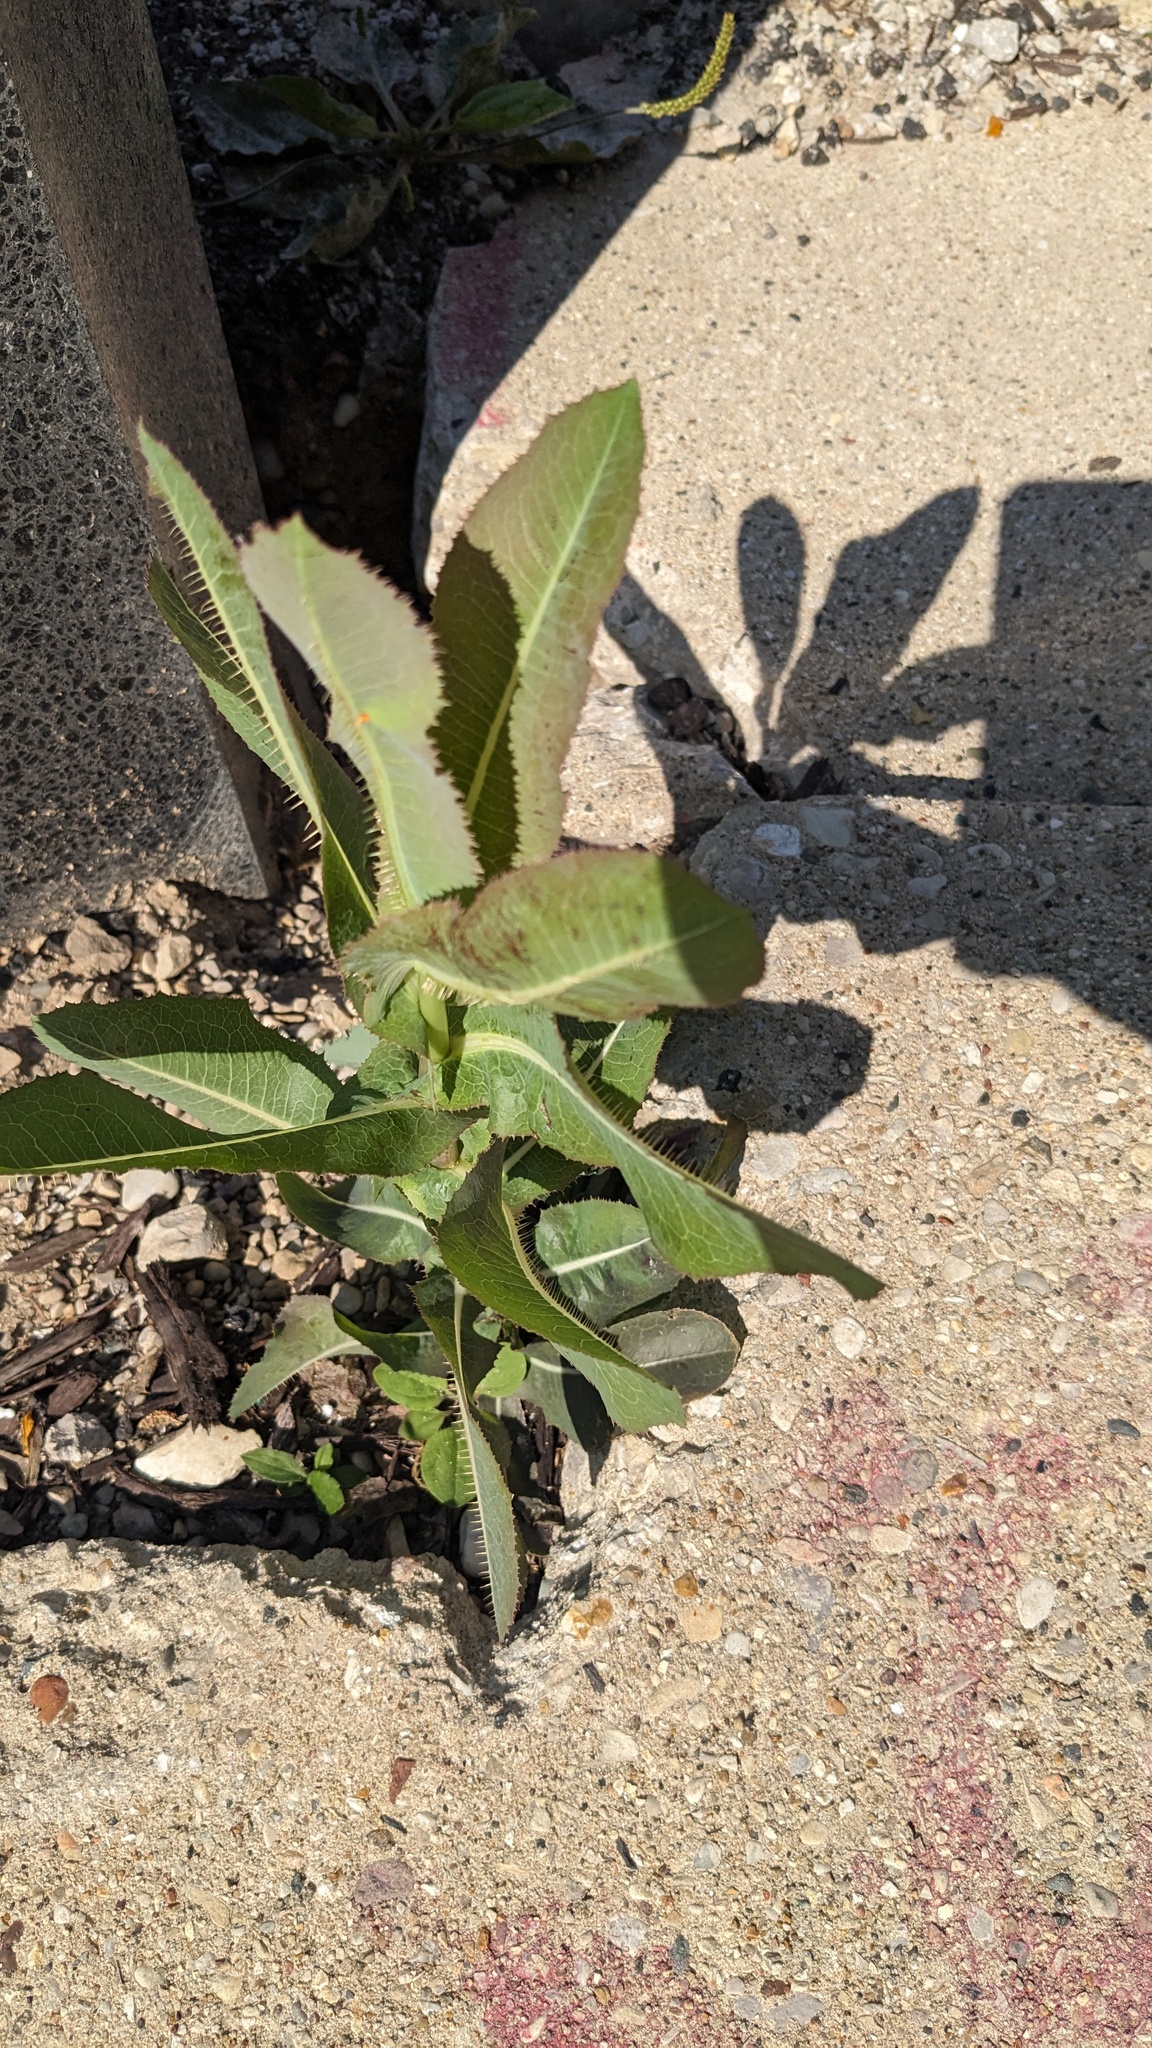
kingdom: Plantae
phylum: Tracheophyta
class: Magnoliopsida
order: Asterales
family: Asteraceae
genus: Lactuca
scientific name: Lactuca serriola
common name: Prickly lettuce
